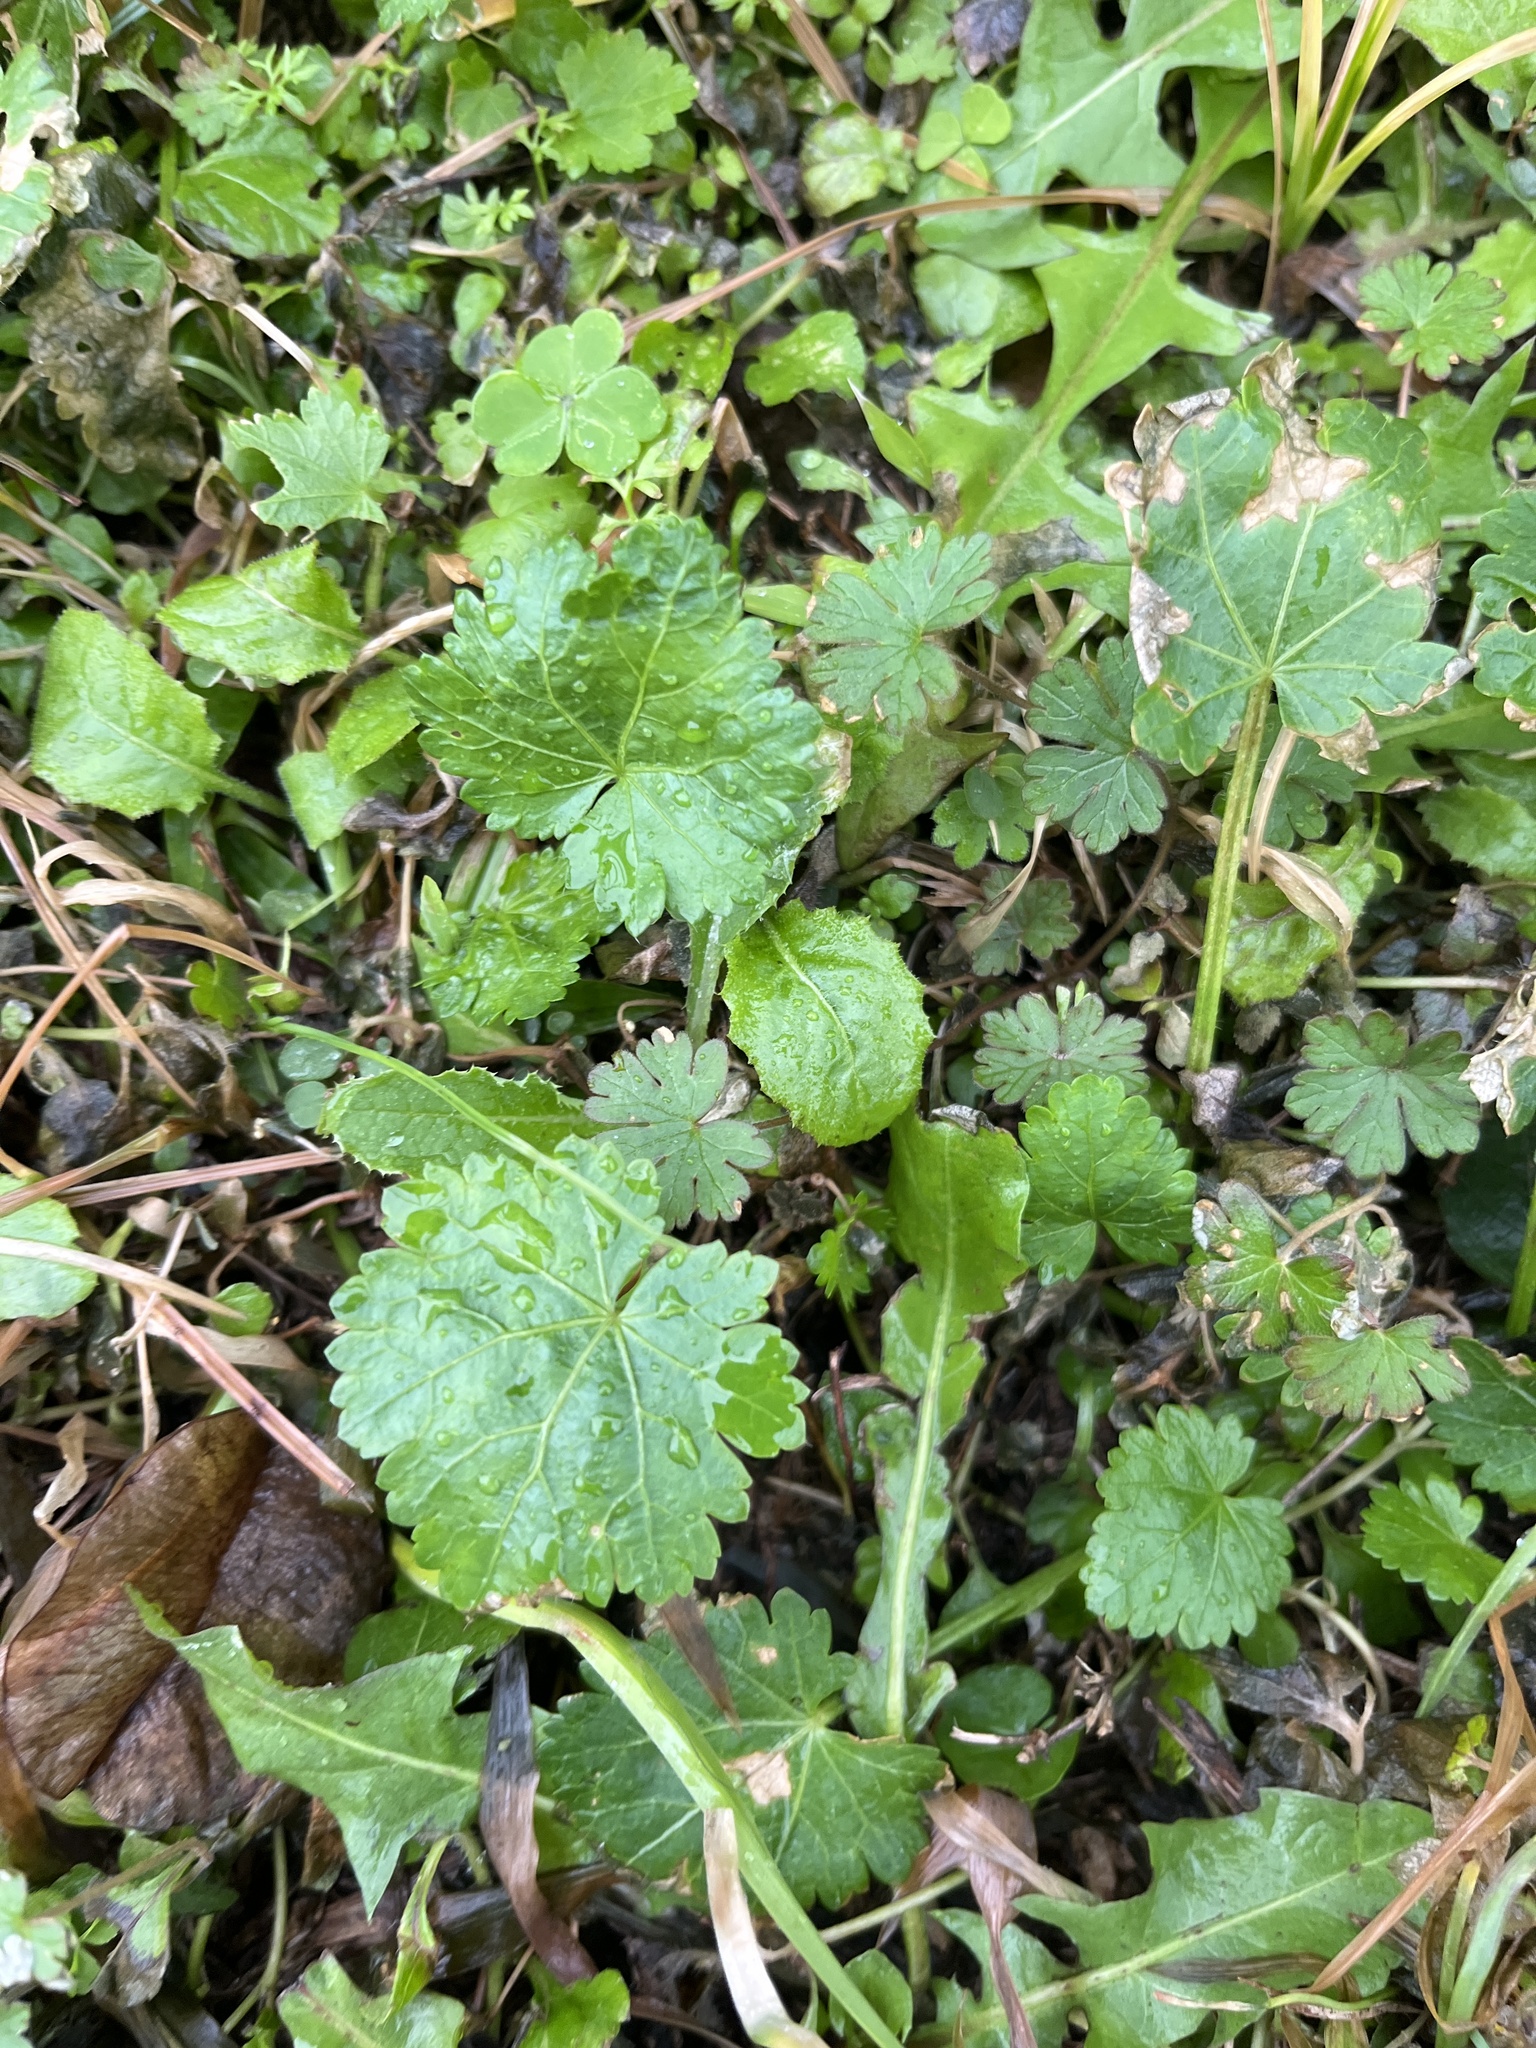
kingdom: Plantae
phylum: Tracheophyta
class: Magnoliopsida
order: Malvales
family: Malvaceae
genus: Modiola
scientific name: Modiola caroliniana
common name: Carolina bristlemallow
